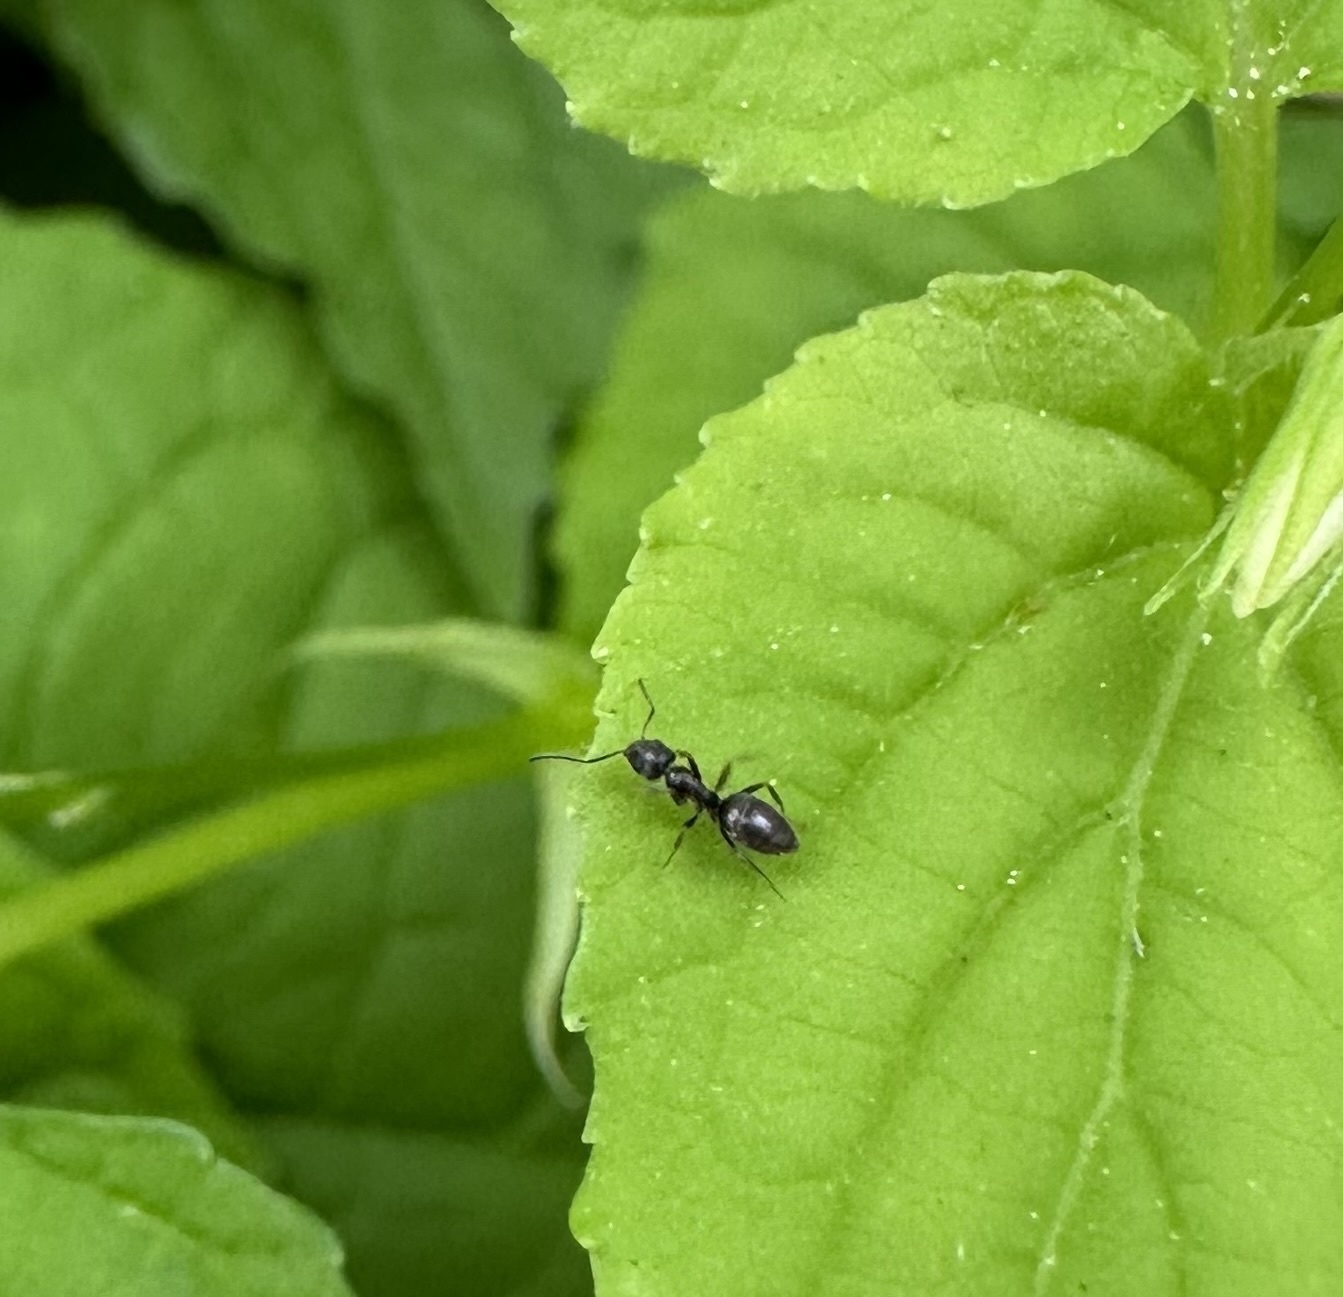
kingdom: Animalia
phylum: Arthropoda
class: Insecta
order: Hymenoptera
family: Formicidae
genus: Tapinoma
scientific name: Tapinoma sessile
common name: Odorous house ant
